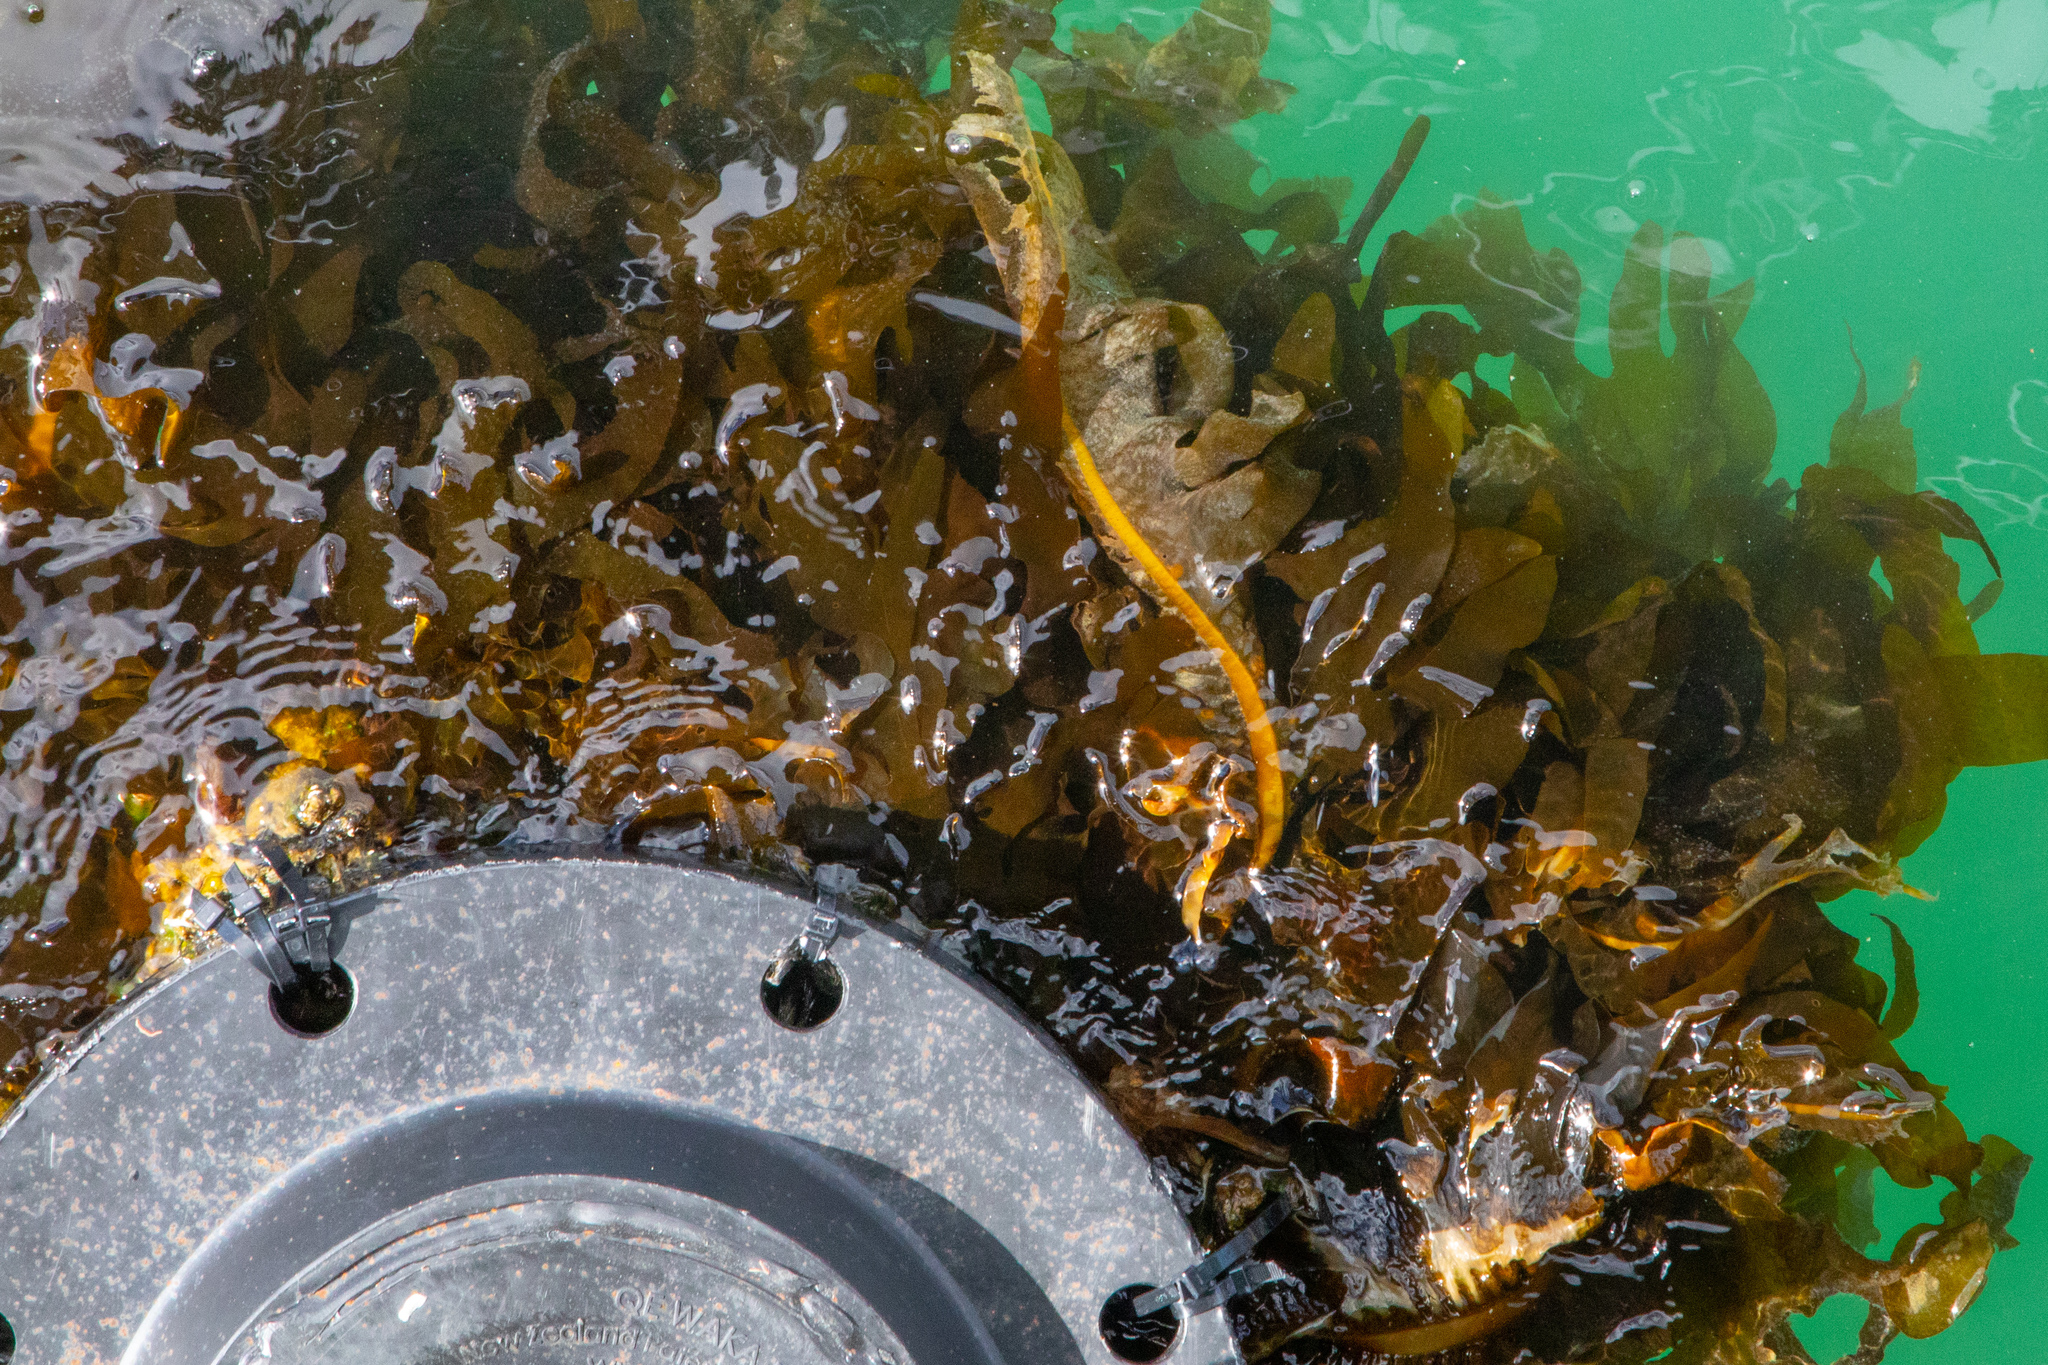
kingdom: Chromista
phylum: Ochrophyta
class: Phaeophyceae
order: Laminariales
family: Alariaceae
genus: Undaria
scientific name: Undaria pinnatifida
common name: Asian kelp
